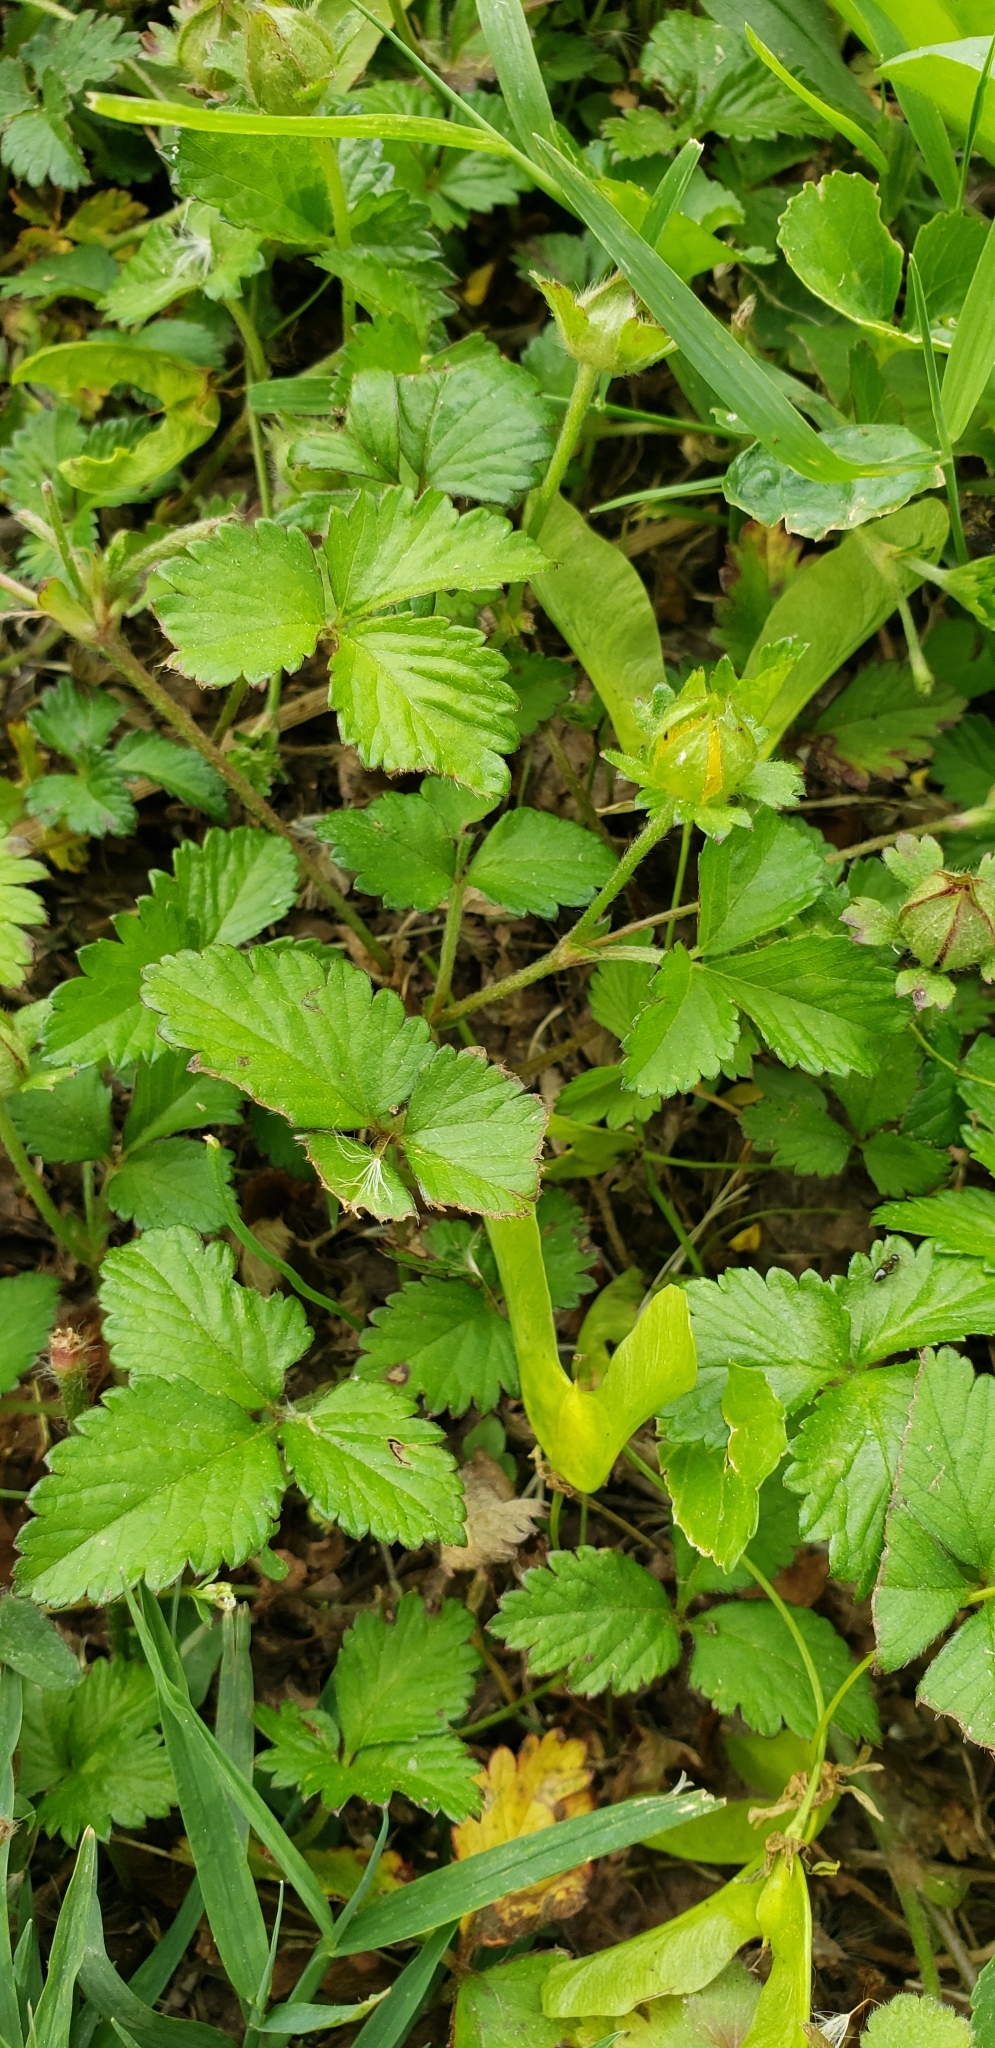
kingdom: Plantae
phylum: Tracheophyta
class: Magnoliopsida
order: Rosales
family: Rosaceae
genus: Potentilla
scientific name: Potentilla indica
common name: Yellow-flowered strawberry
